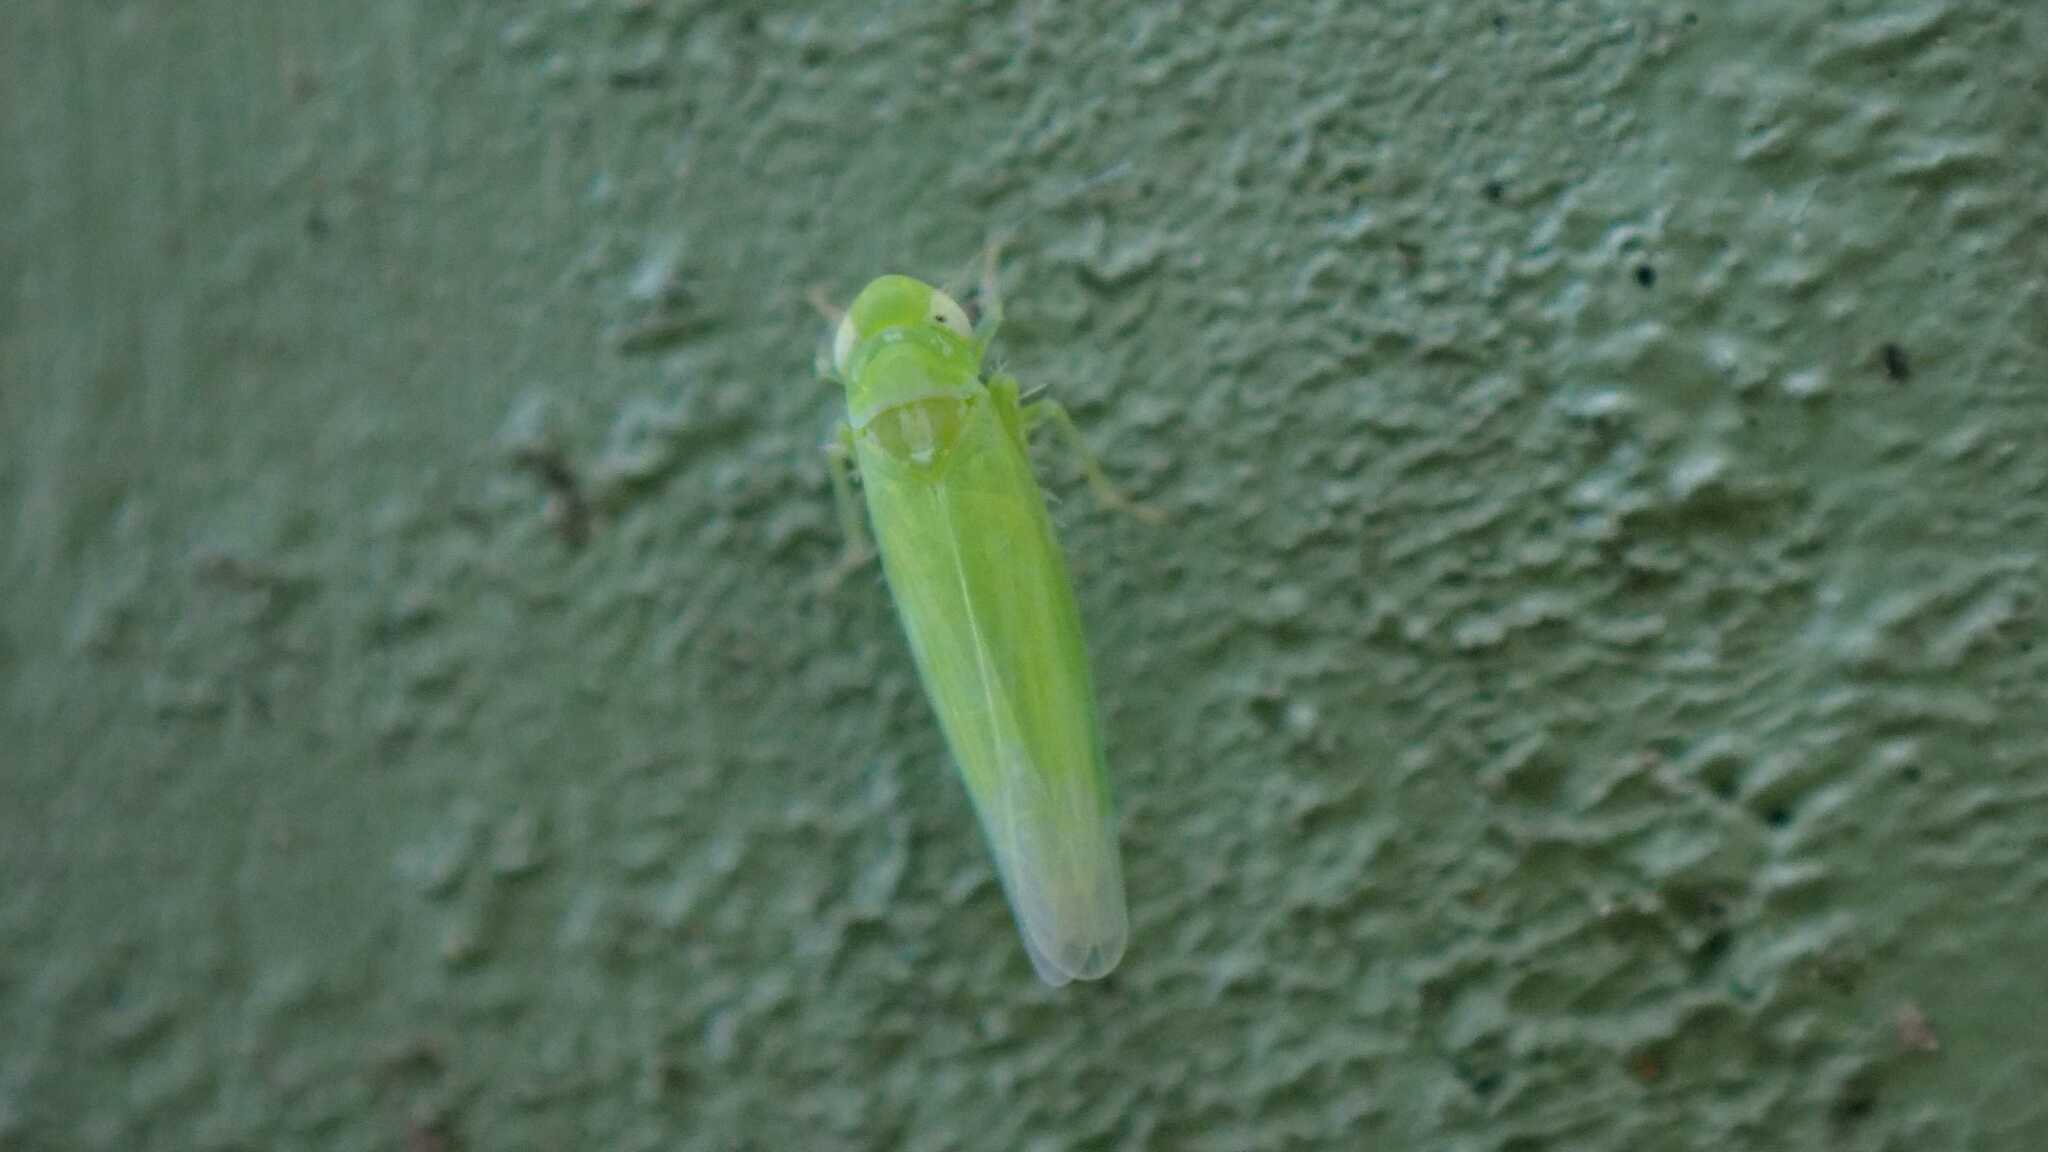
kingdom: Animalia
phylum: Arthropoda
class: Insecta
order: Hemiptera
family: Cicadellidae
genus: Hebata
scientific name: Hebata vitis
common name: The smaller green leafhopper
